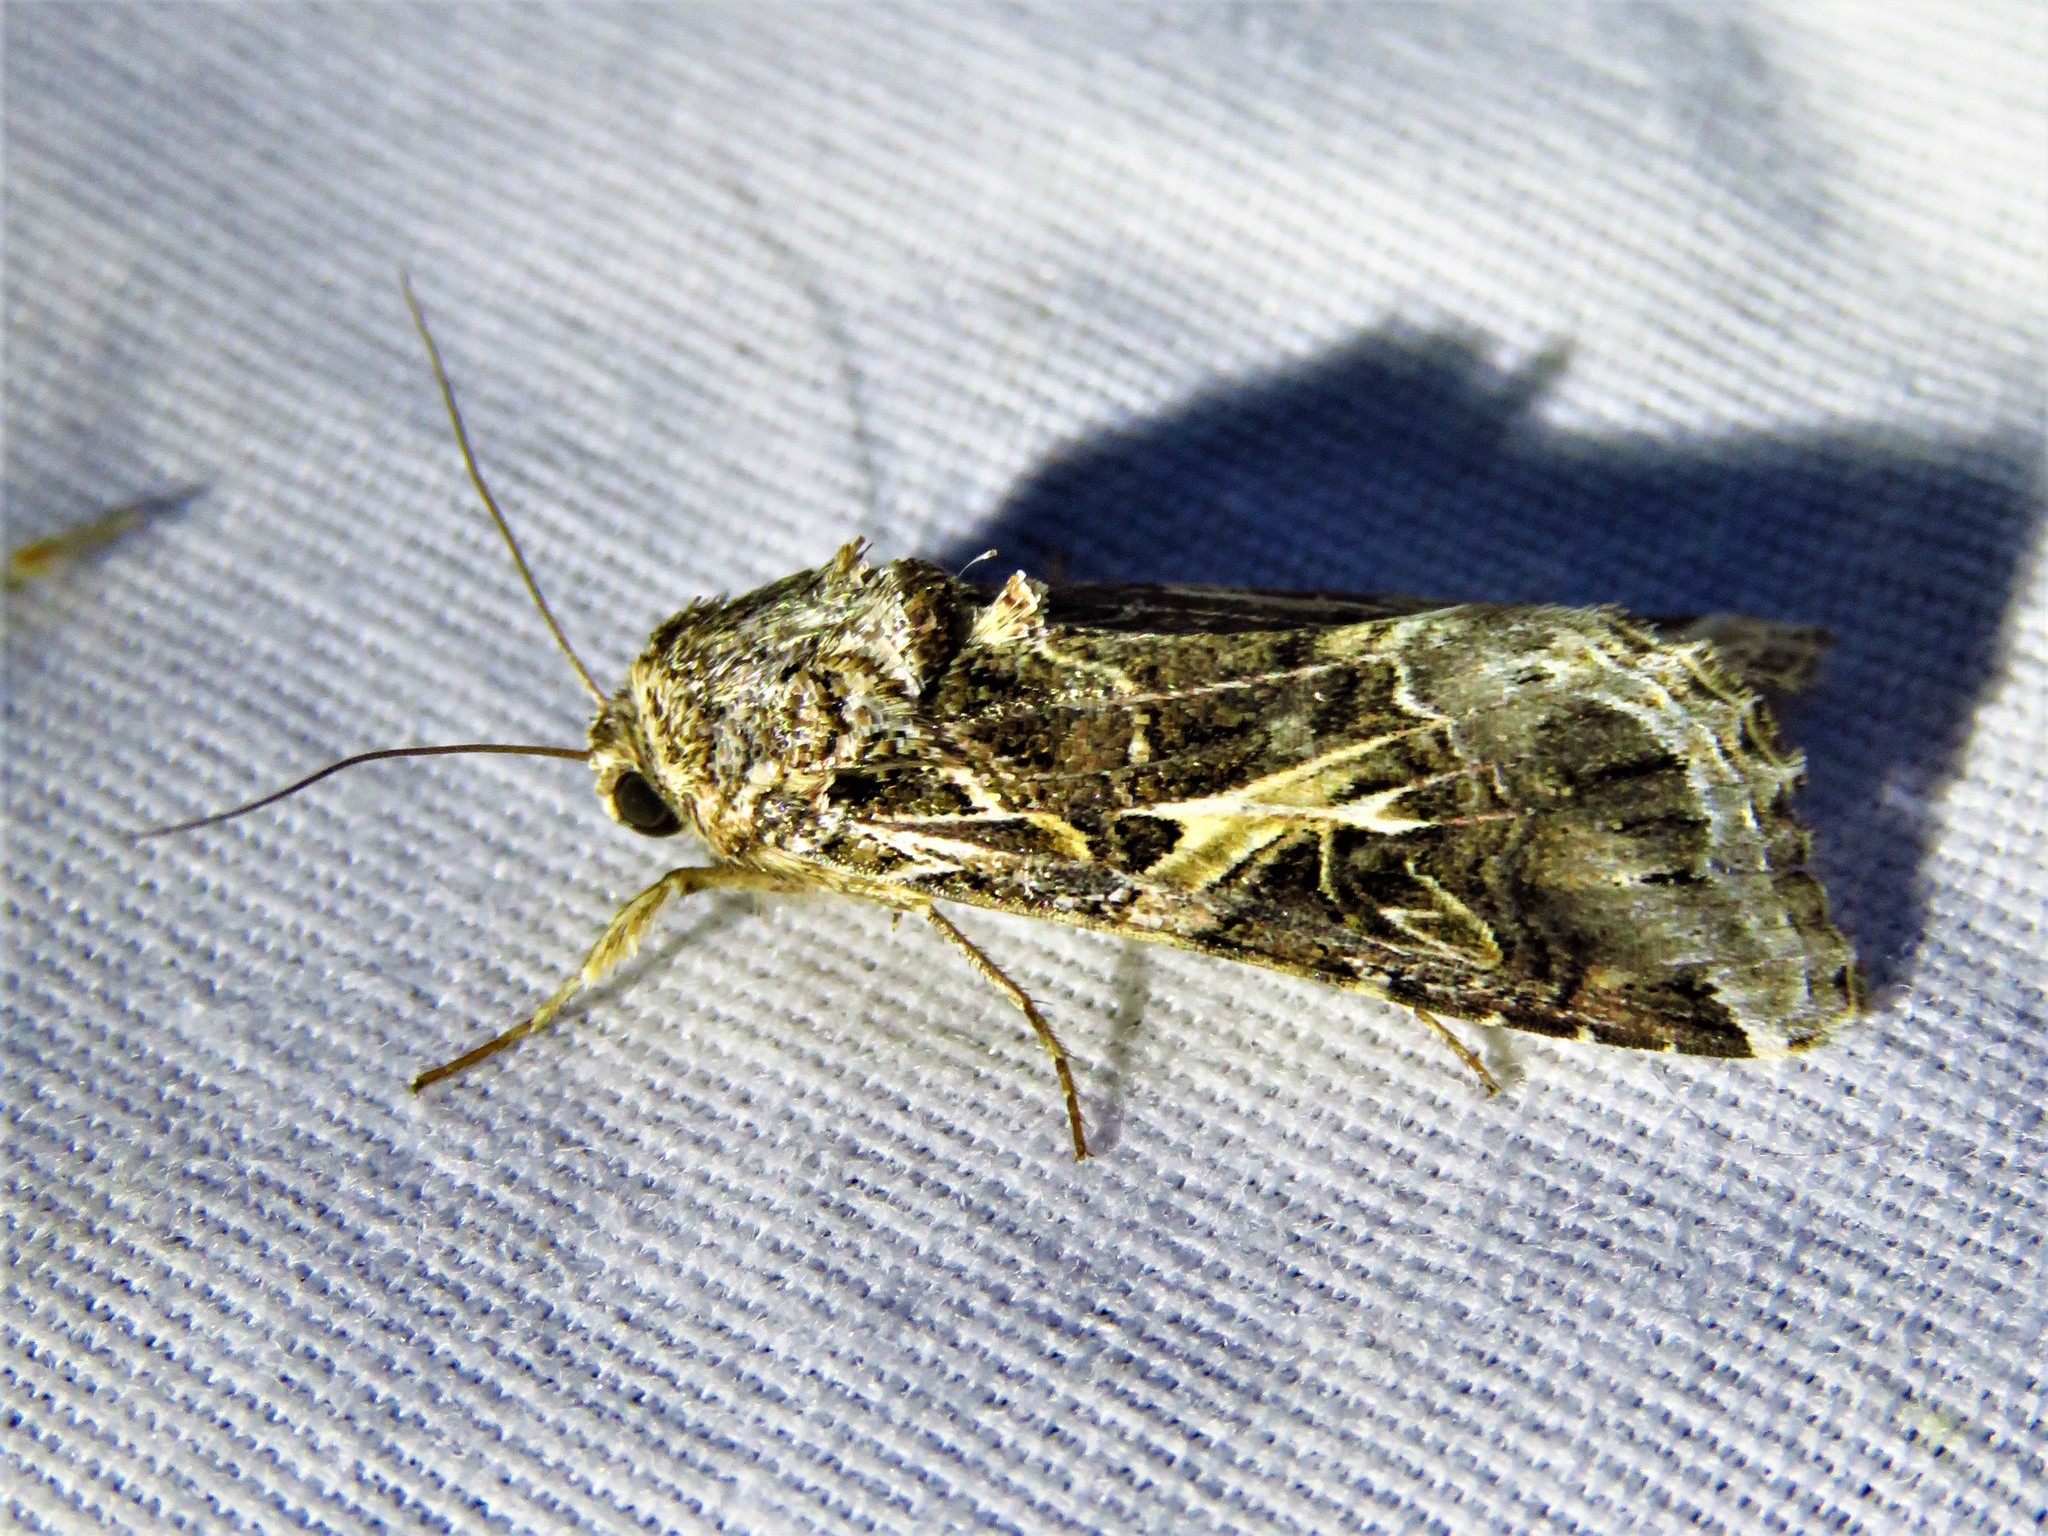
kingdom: Animalia
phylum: Arthropoda
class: Insecta
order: Lepidoptera
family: Noctuidae
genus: Spodoptera
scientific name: Spodoptera ornithogalli
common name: Yellow-striped armyworm
